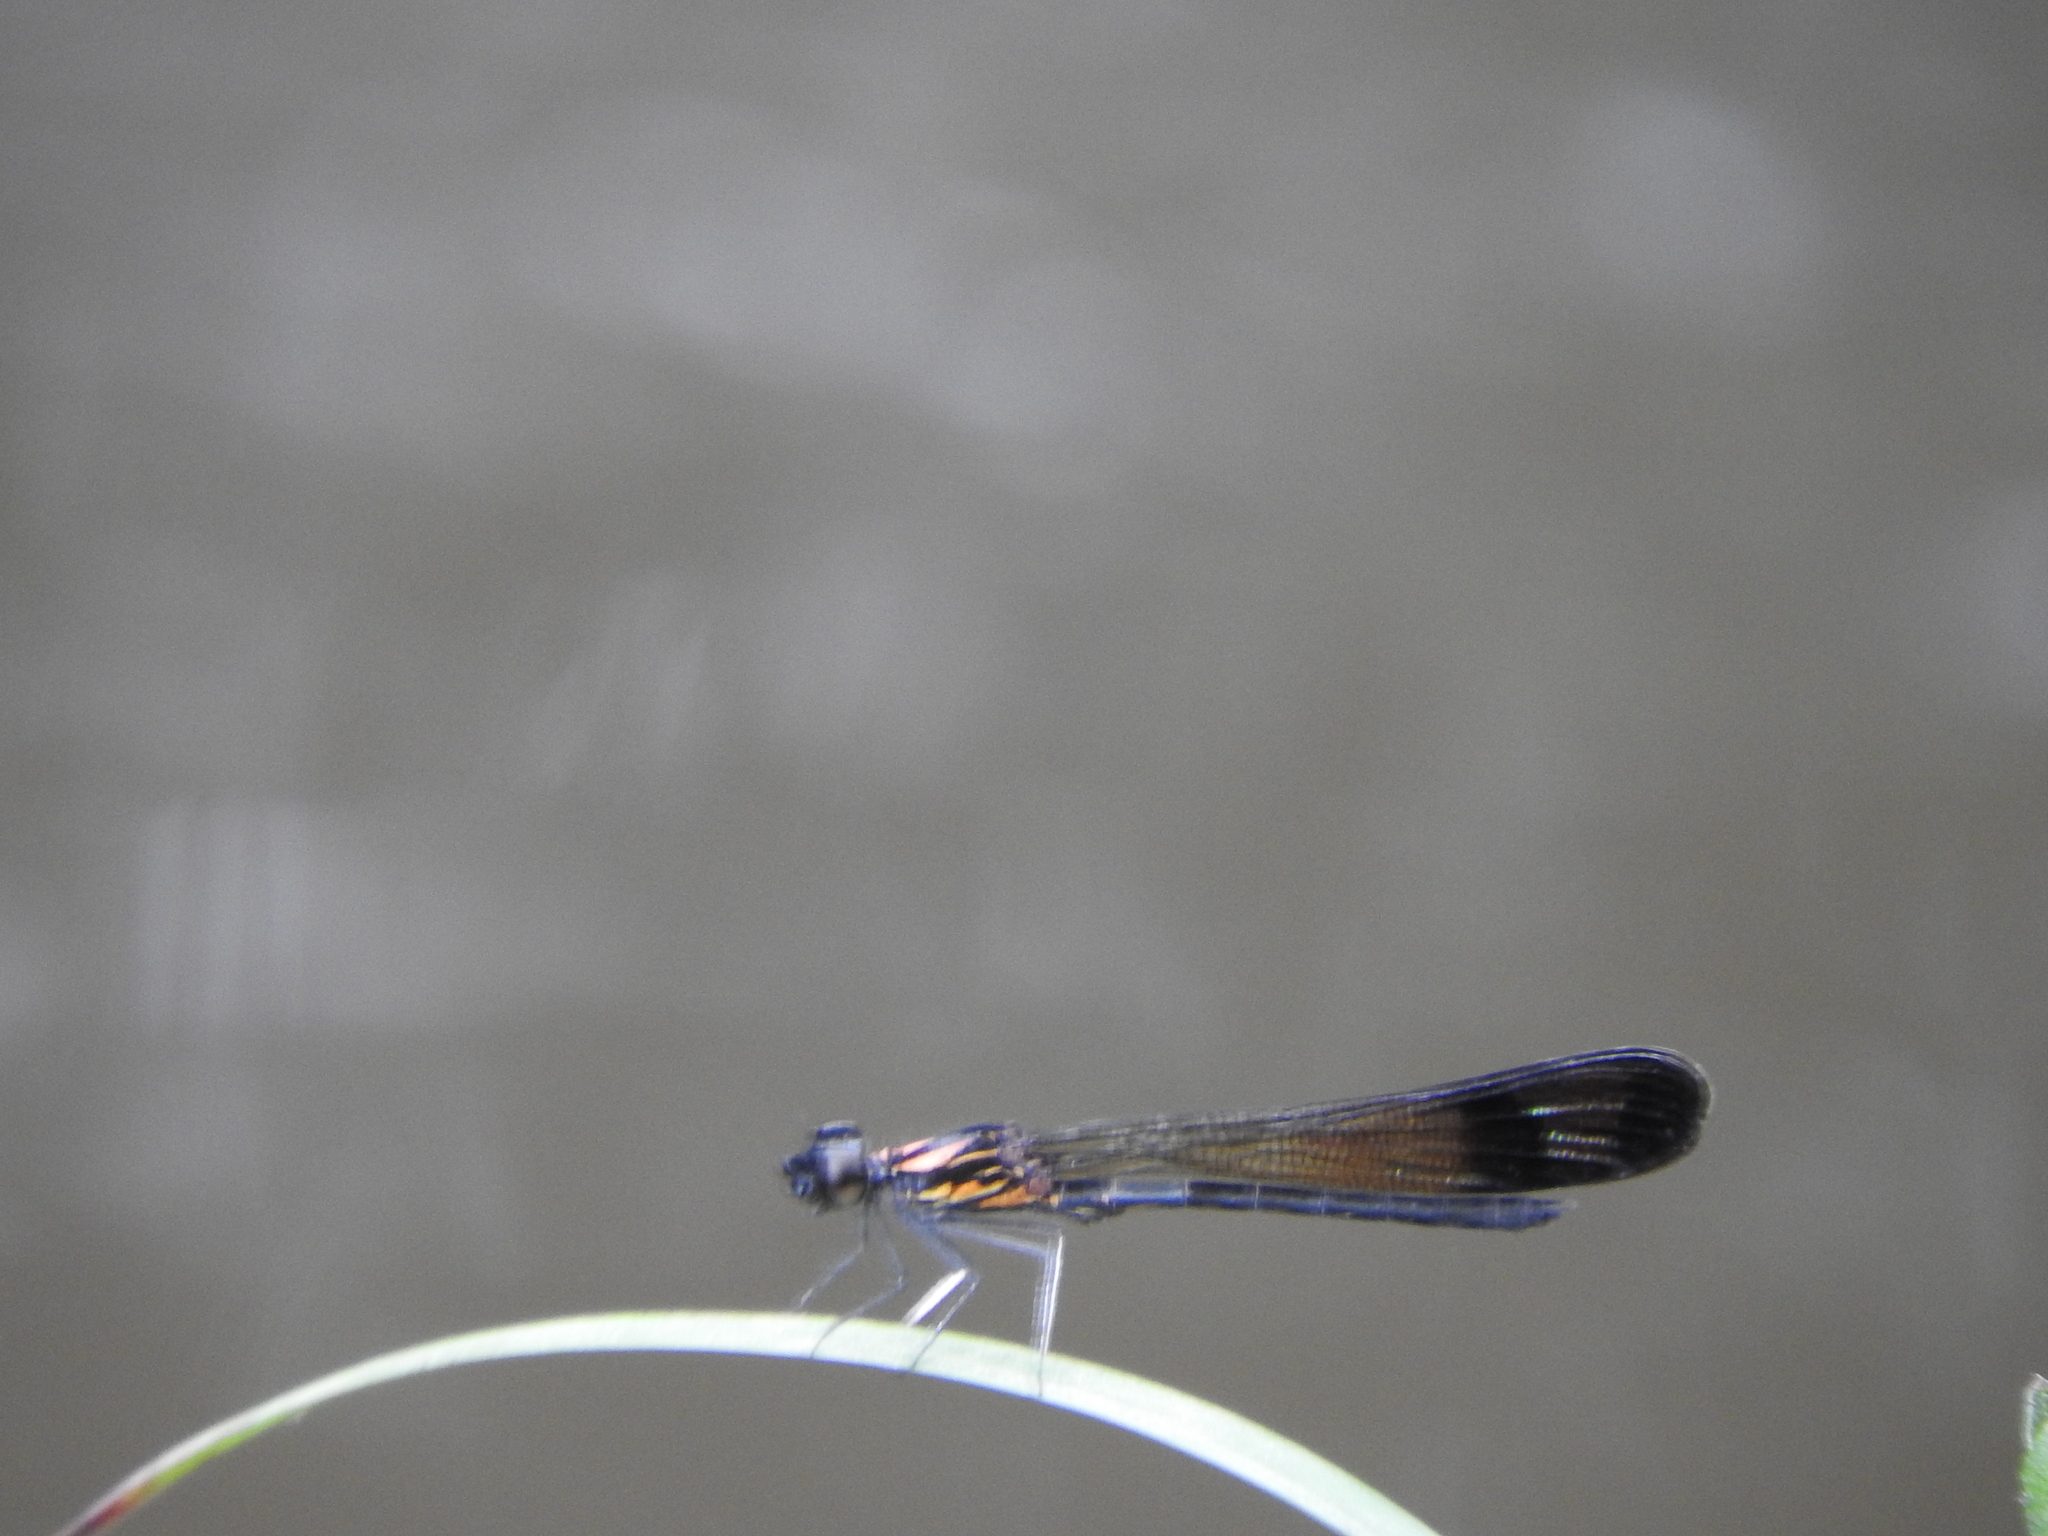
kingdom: Animalia
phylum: Arthropoda
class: Insecta
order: Odonata
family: Chlorocyphidae
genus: Heliocypha
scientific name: Heliocypha bisignata
